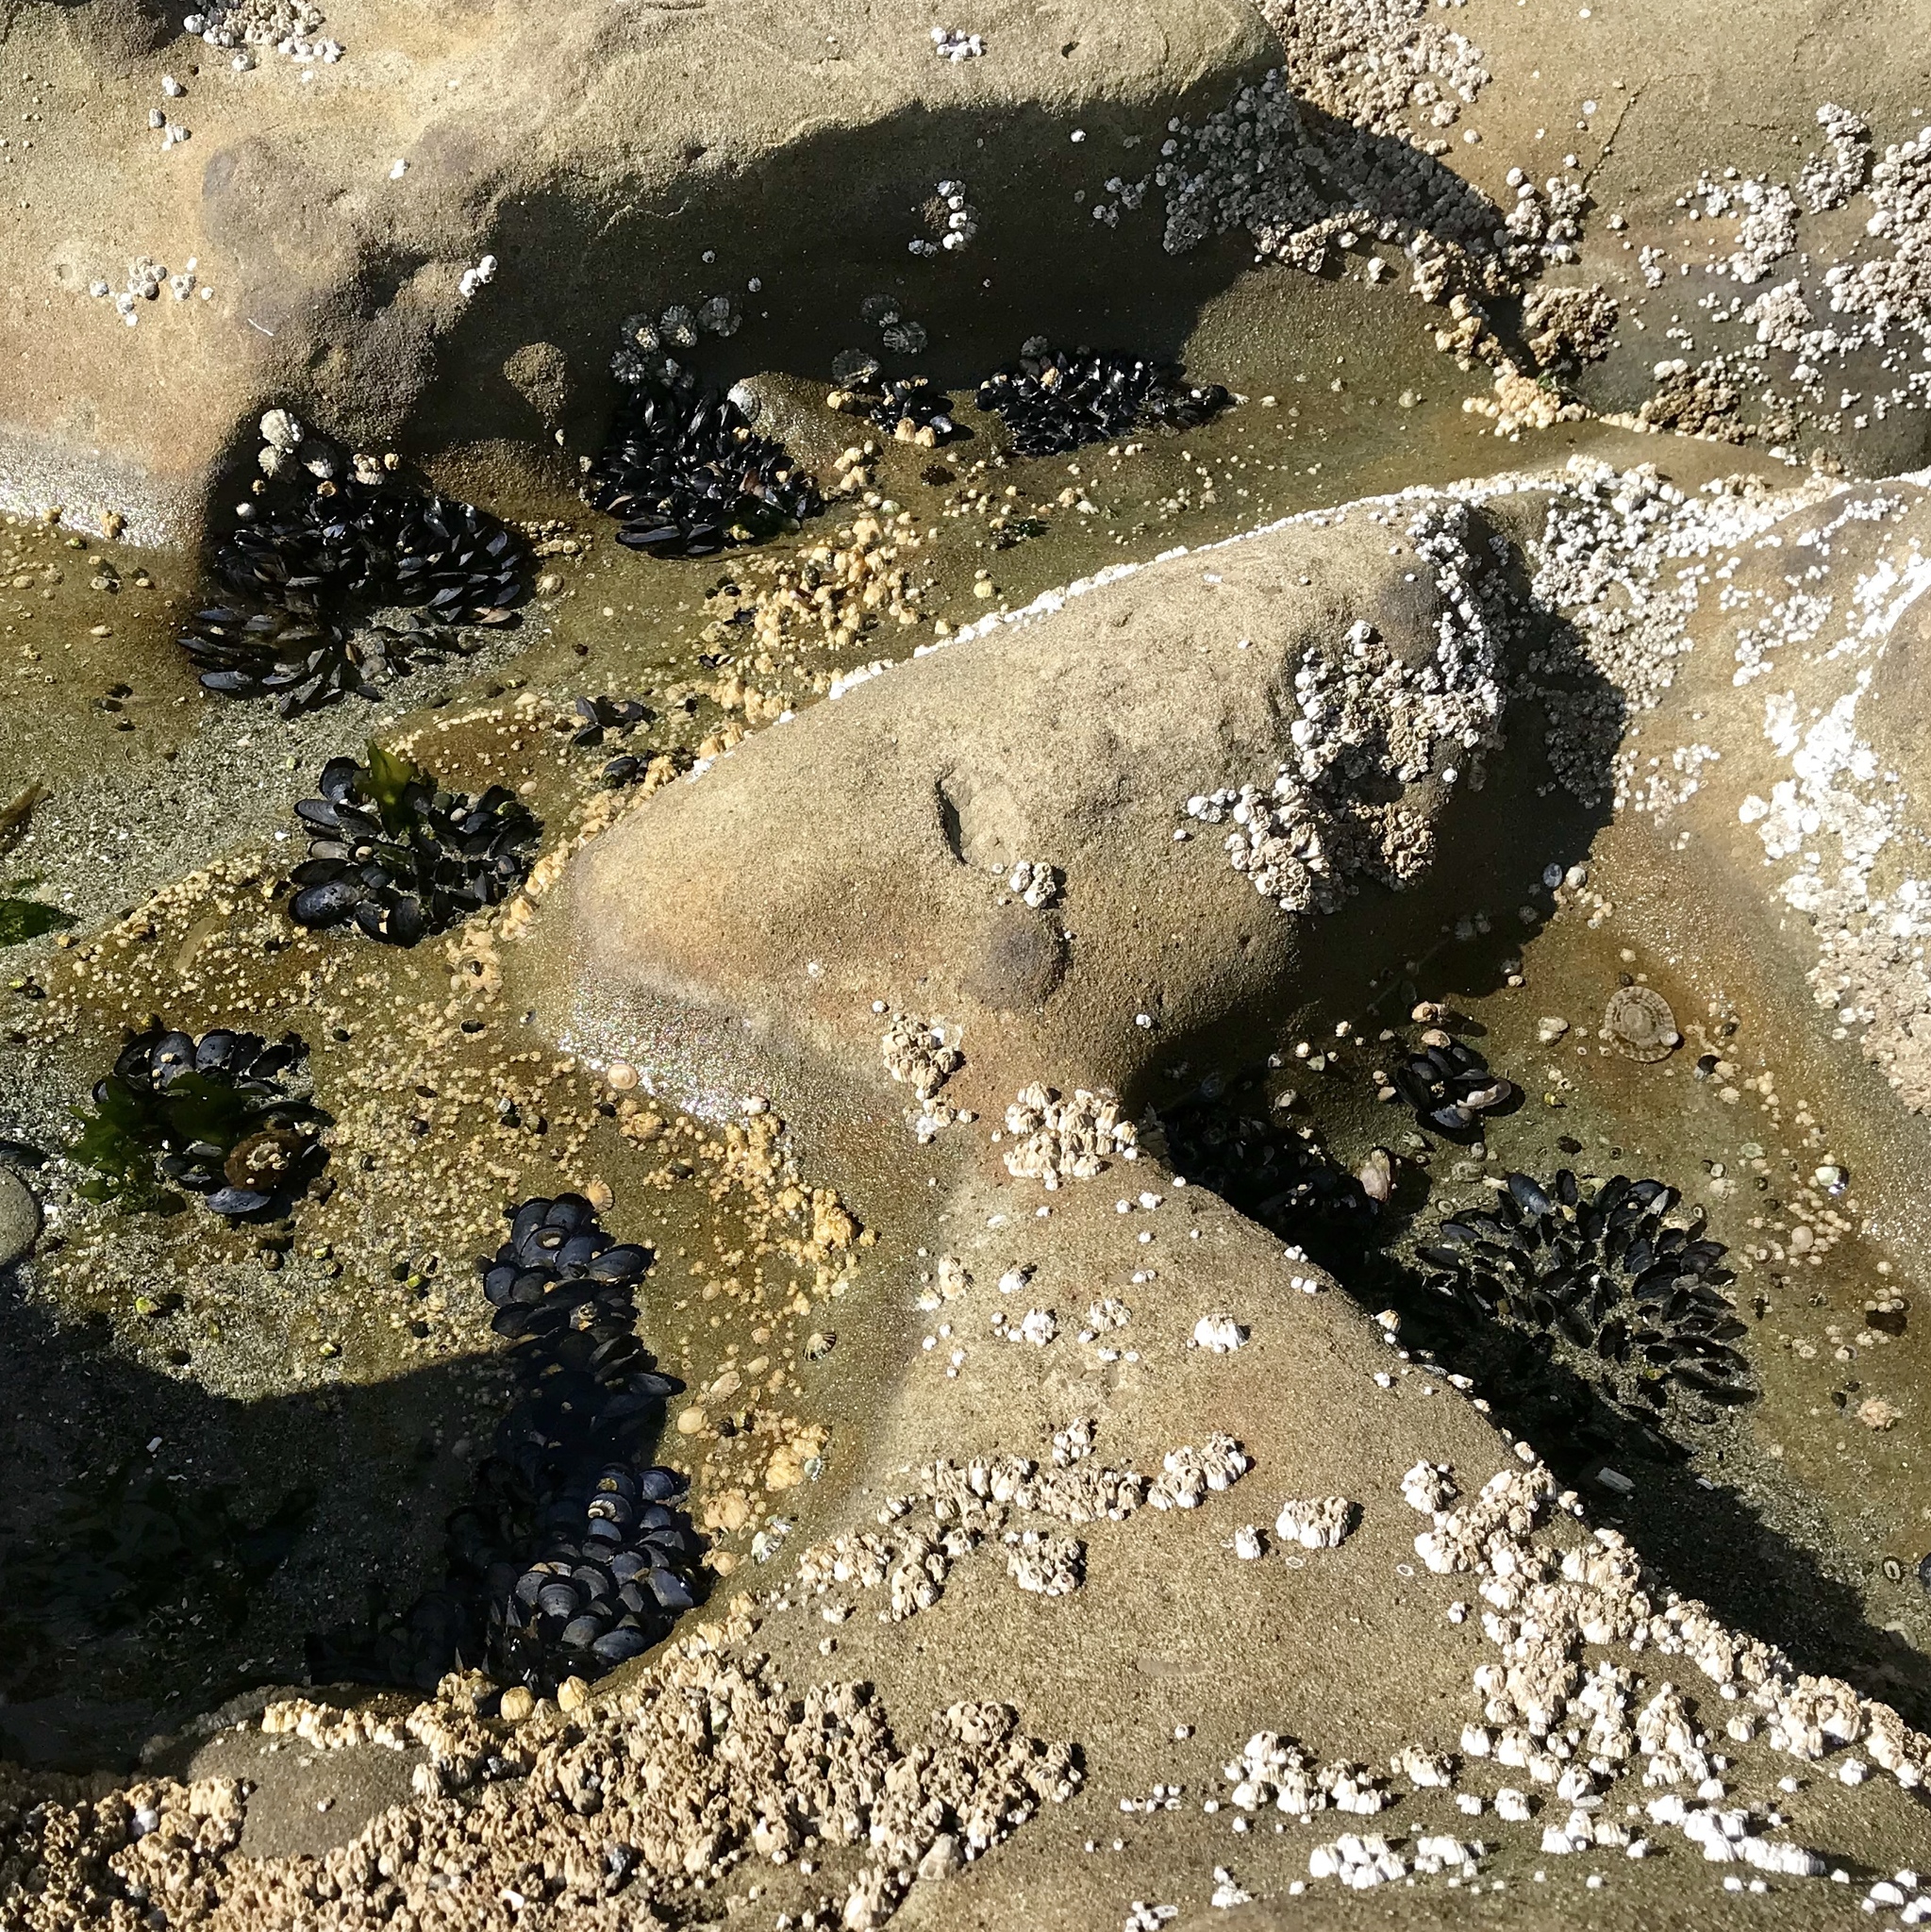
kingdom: Animalia
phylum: Mollusca
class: Bivalvia
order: Mytilida
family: Mytilidae
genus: Mytilus
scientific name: Mytilus
